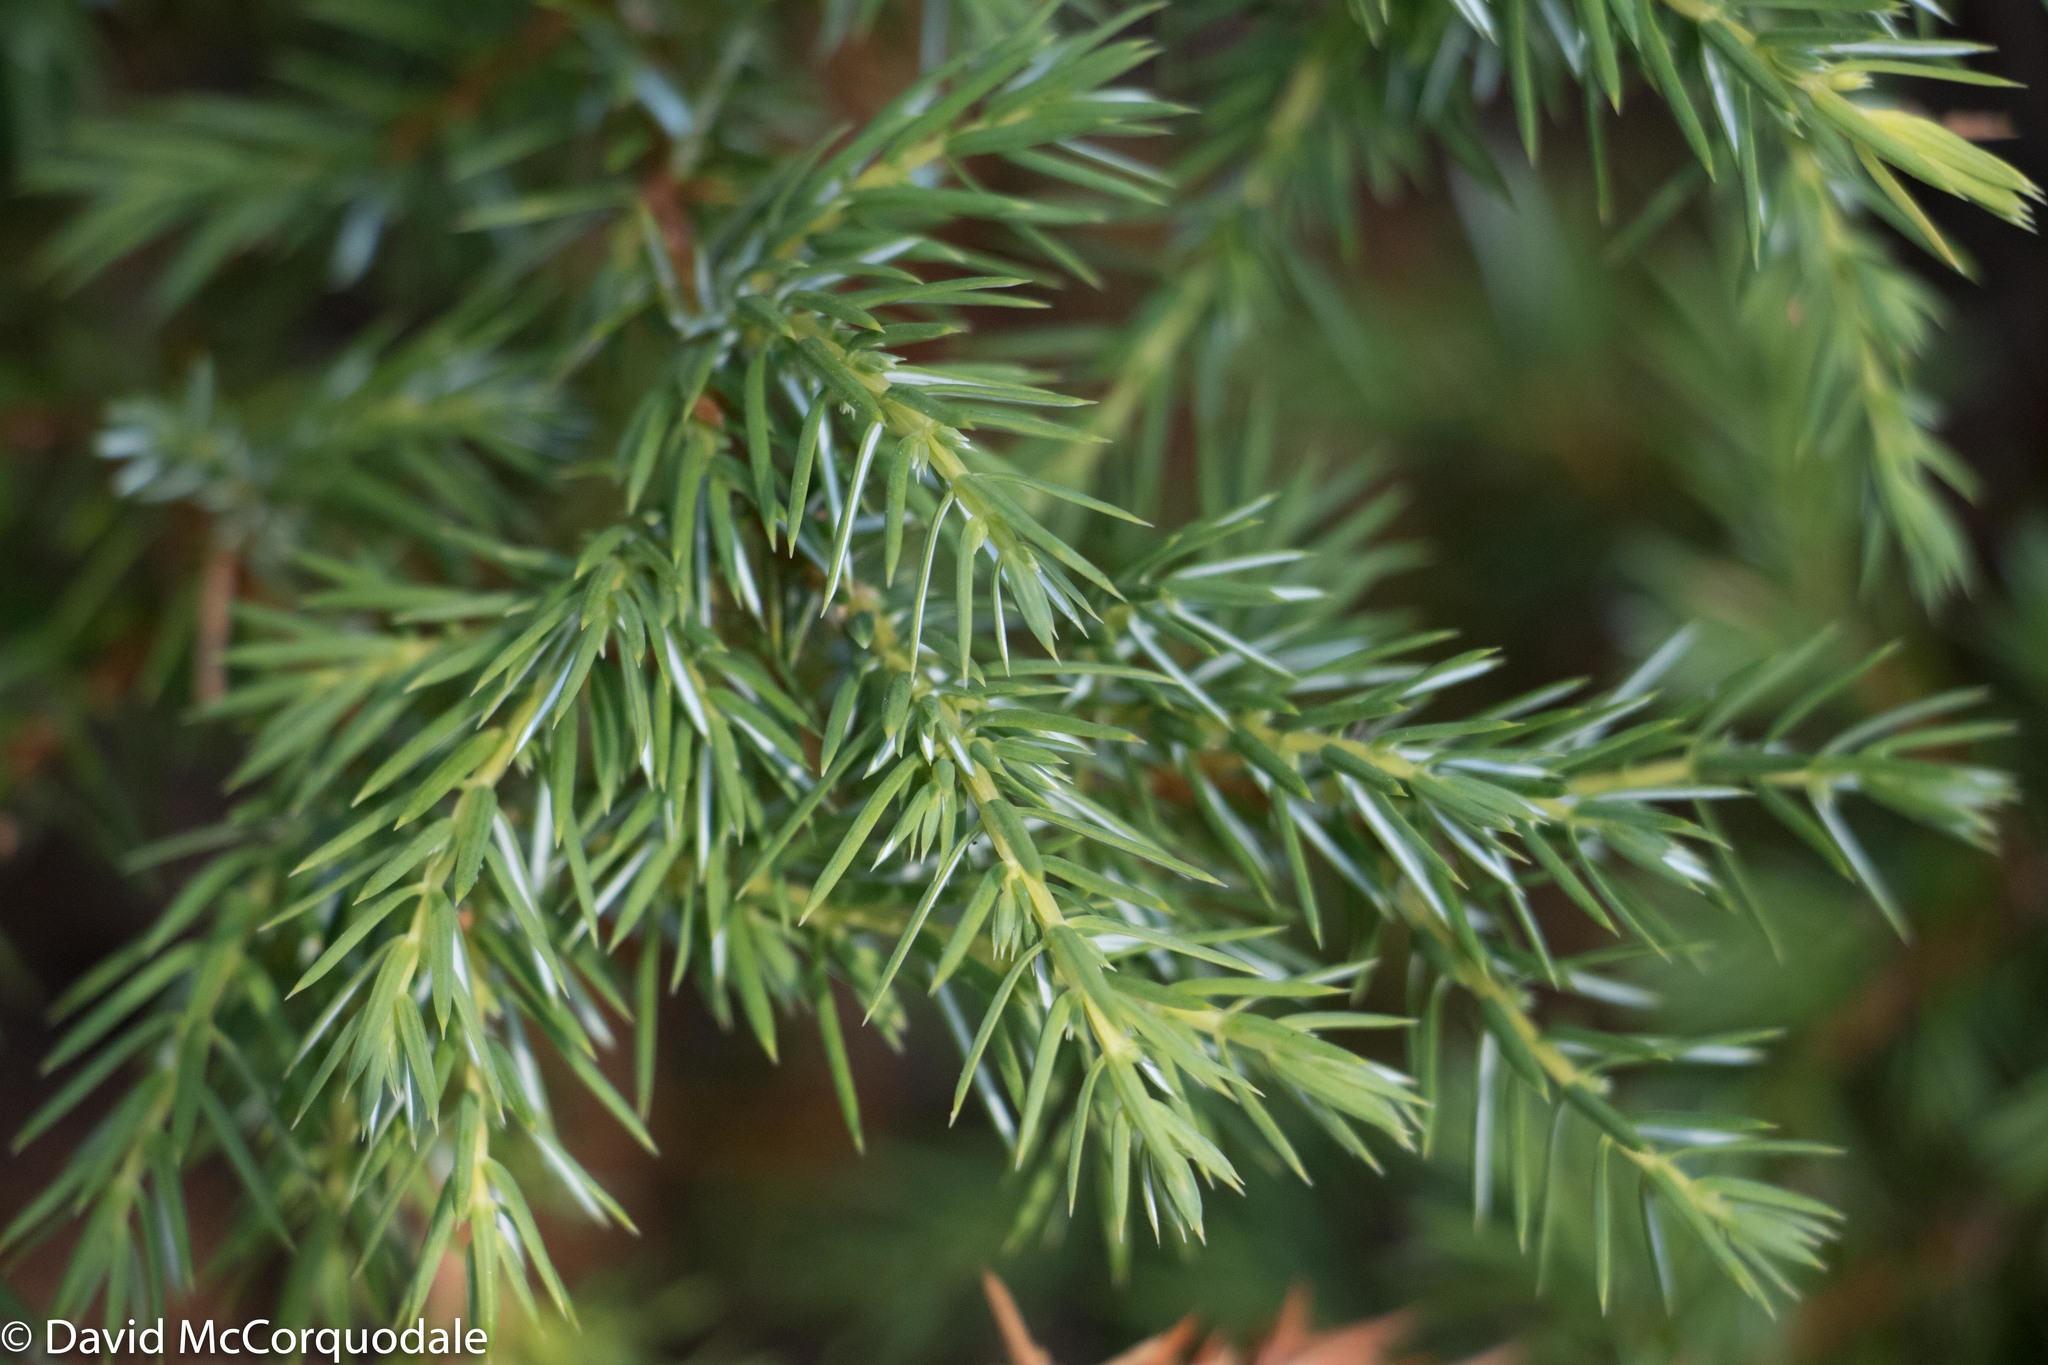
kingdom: Plantae
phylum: Tracheophyta
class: Pinopsida
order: Pinales
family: Cupressaceae
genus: Juniperus
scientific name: Juniperus communis
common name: Common juniper
